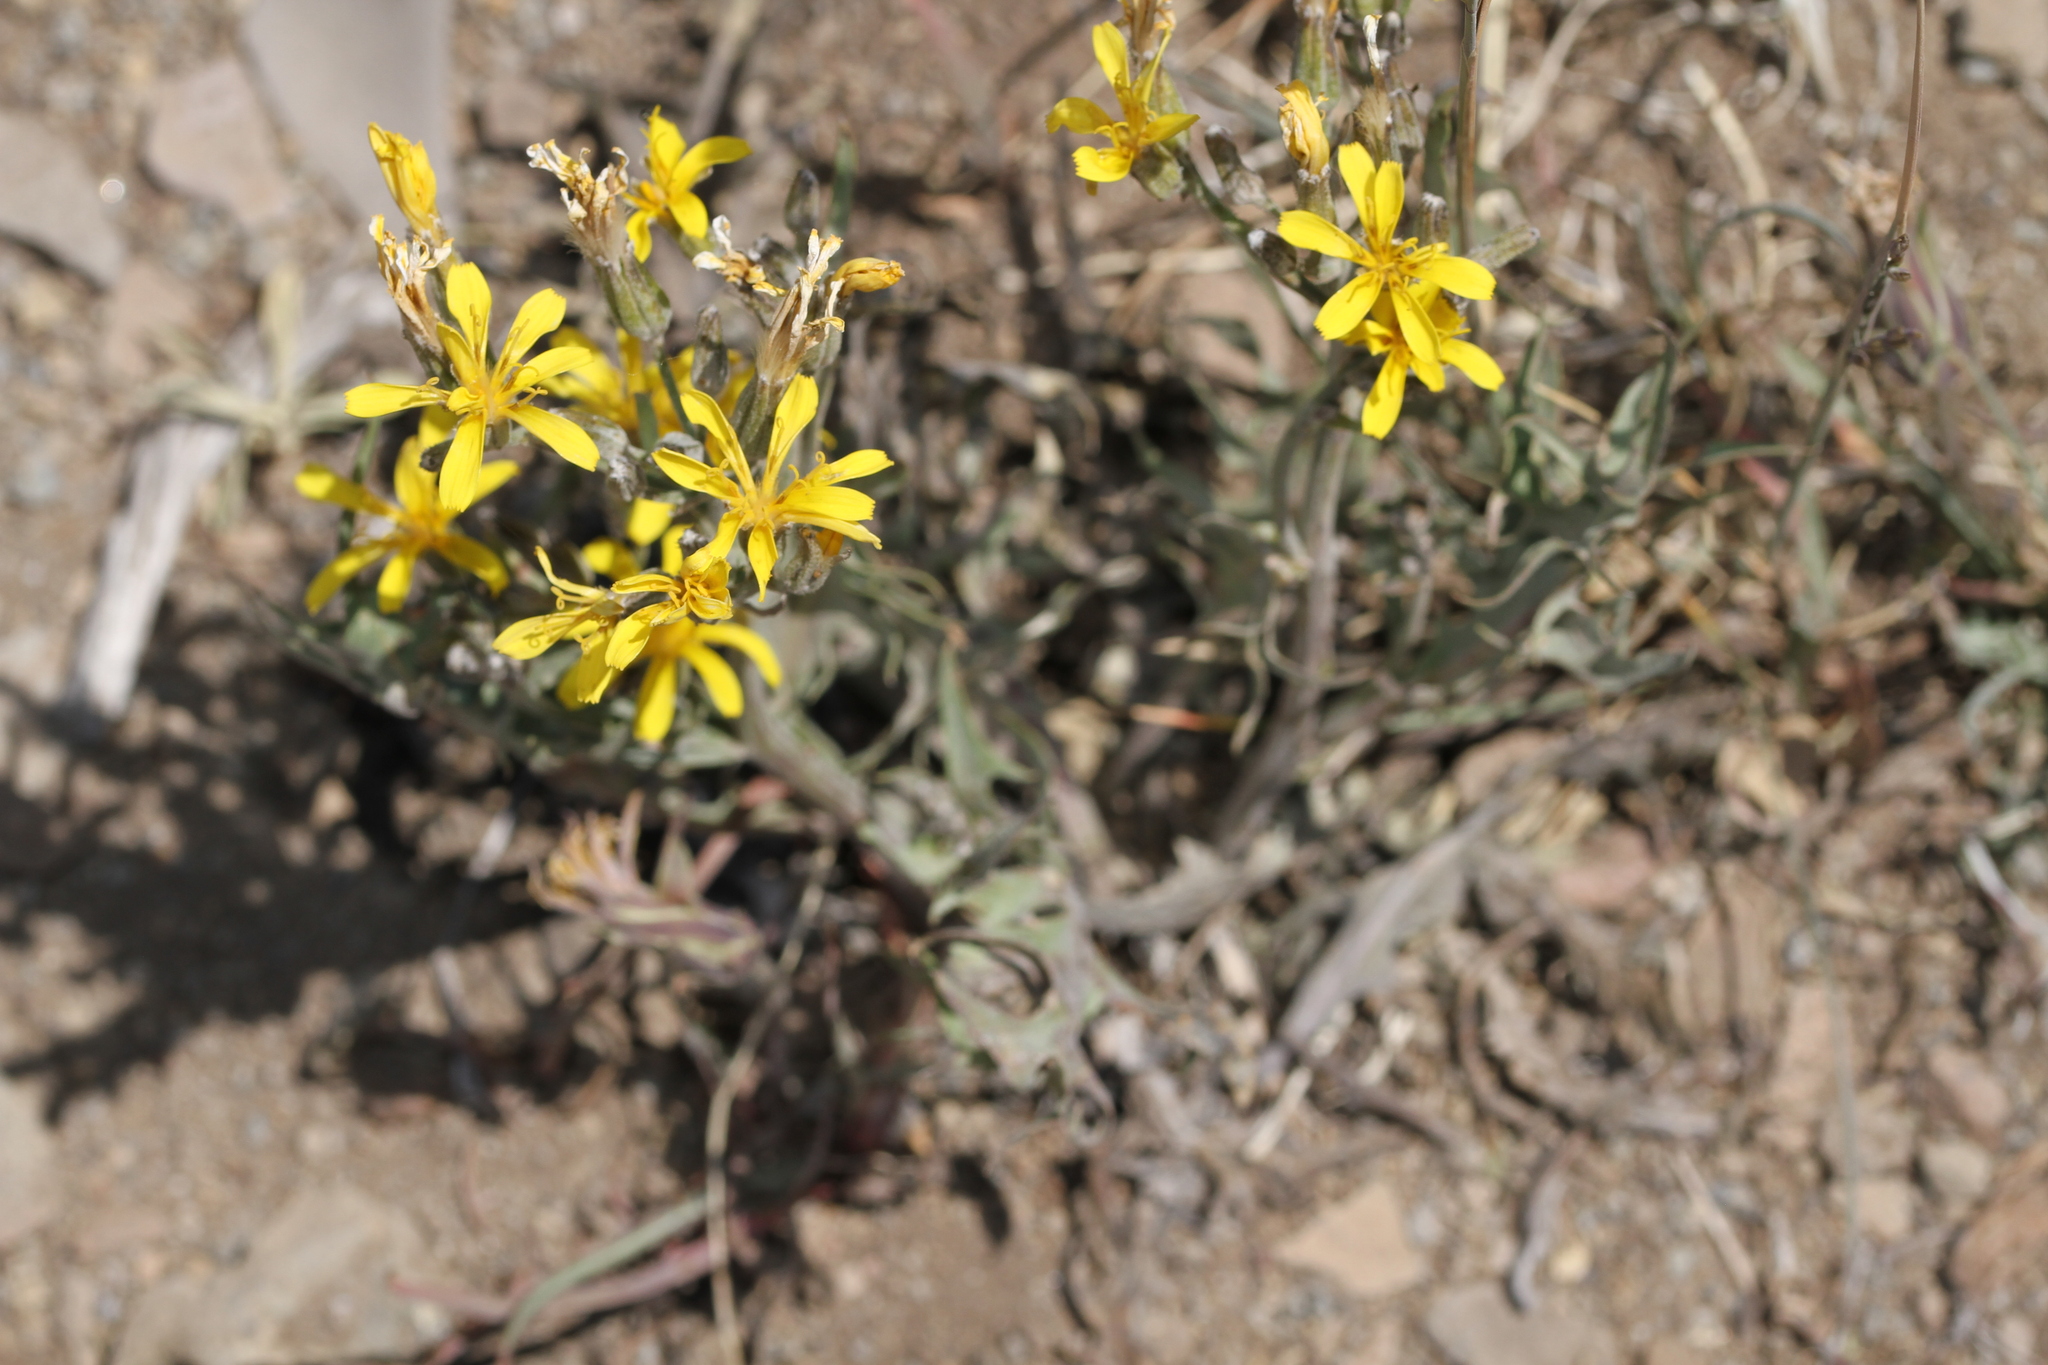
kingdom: Plantae
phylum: Tracheophyta
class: Magnoliopsida
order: Asterales
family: Asteraceae
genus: Crepis
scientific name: Crepis acuminata
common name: Longleaf hawk's-beard
